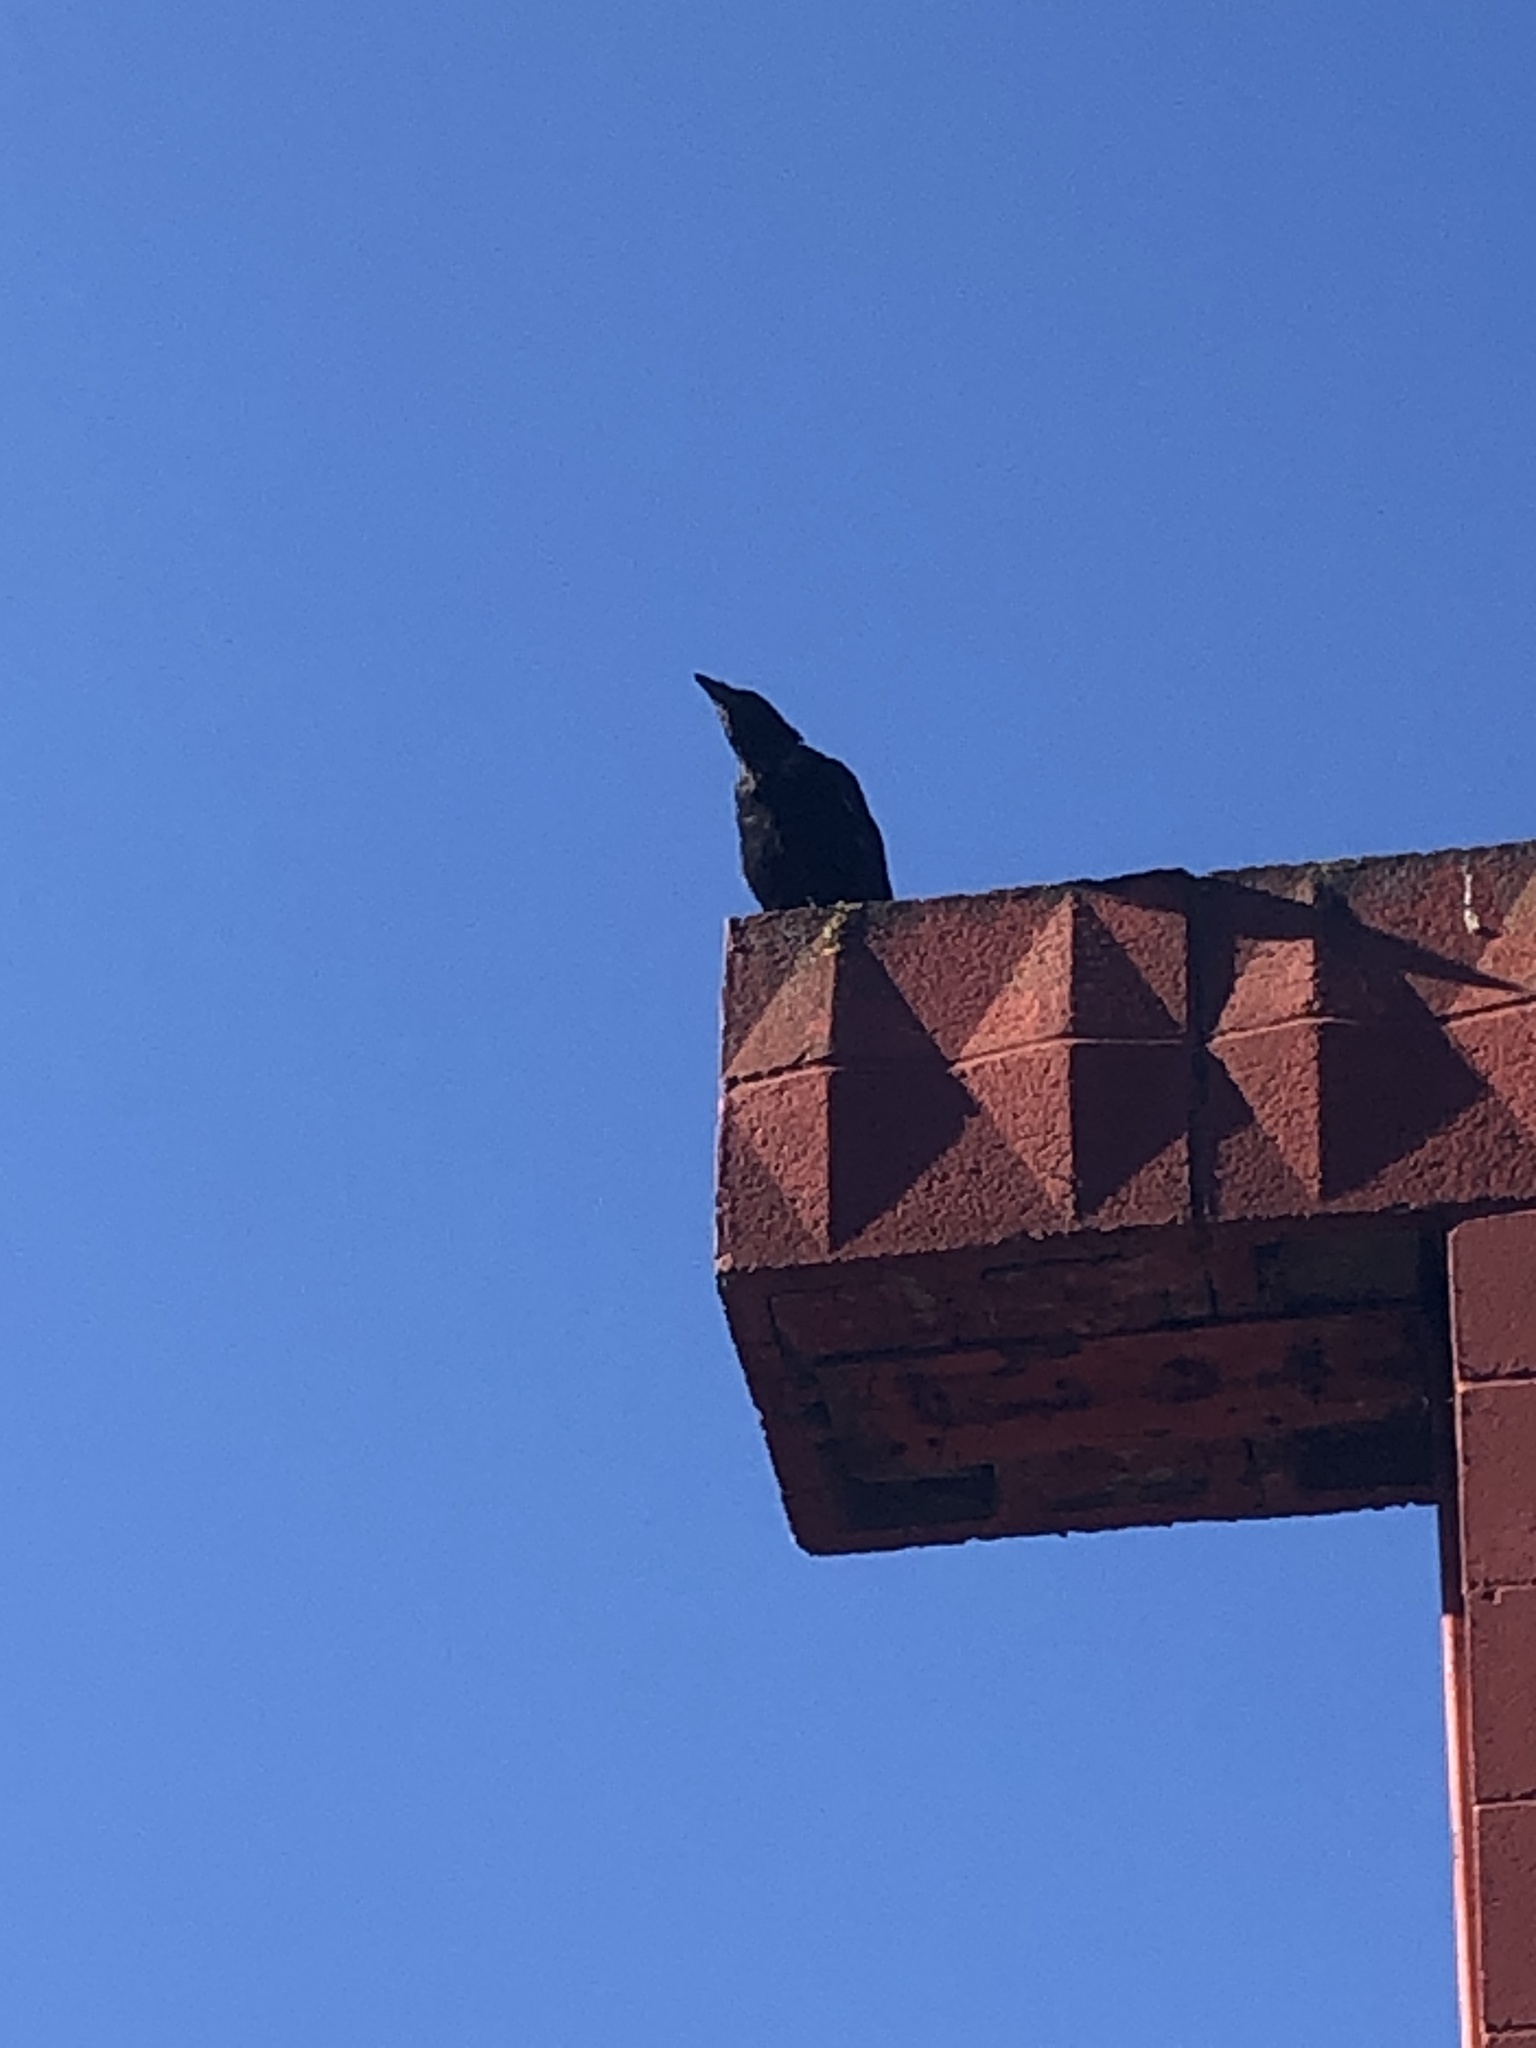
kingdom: Animalia
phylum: Chordata
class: Aves
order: Passeriformes
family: Corvidae
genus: Corvus
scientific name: Corvus brachyrhynchos
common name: American crow
